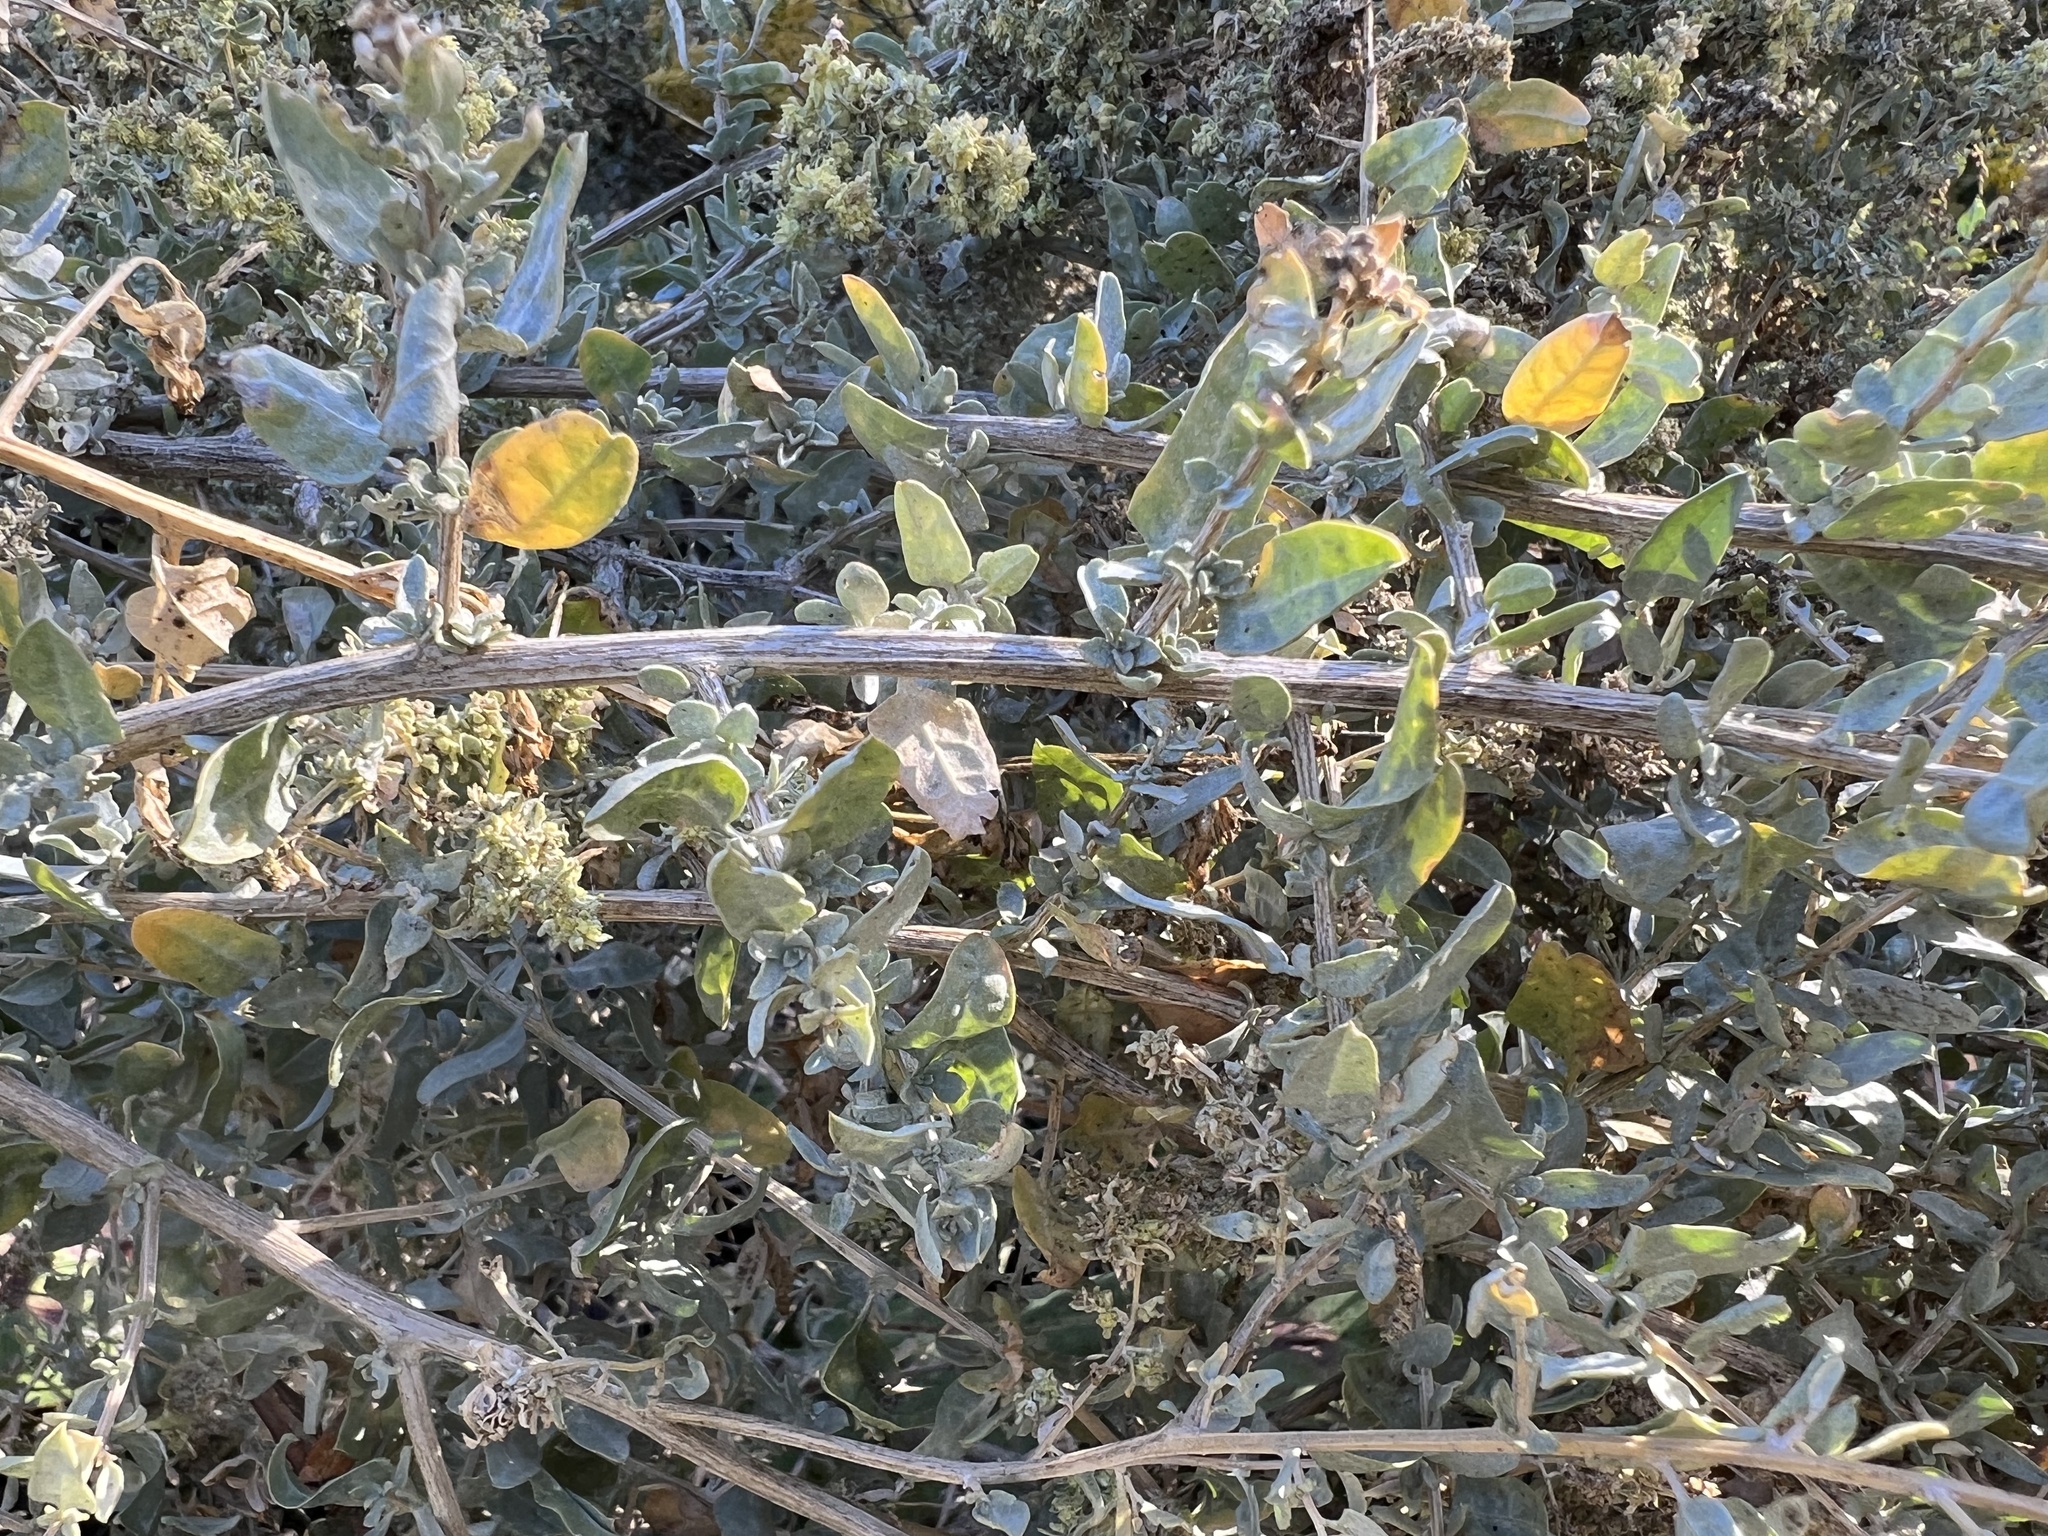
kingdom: Plantae
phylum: Tracheophyta
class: Magnoliopsida
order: Caryophyllales
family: Amaranthaceae
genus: Atriplex
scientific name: Atriplex torreyi
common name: Torrey's saltbush
